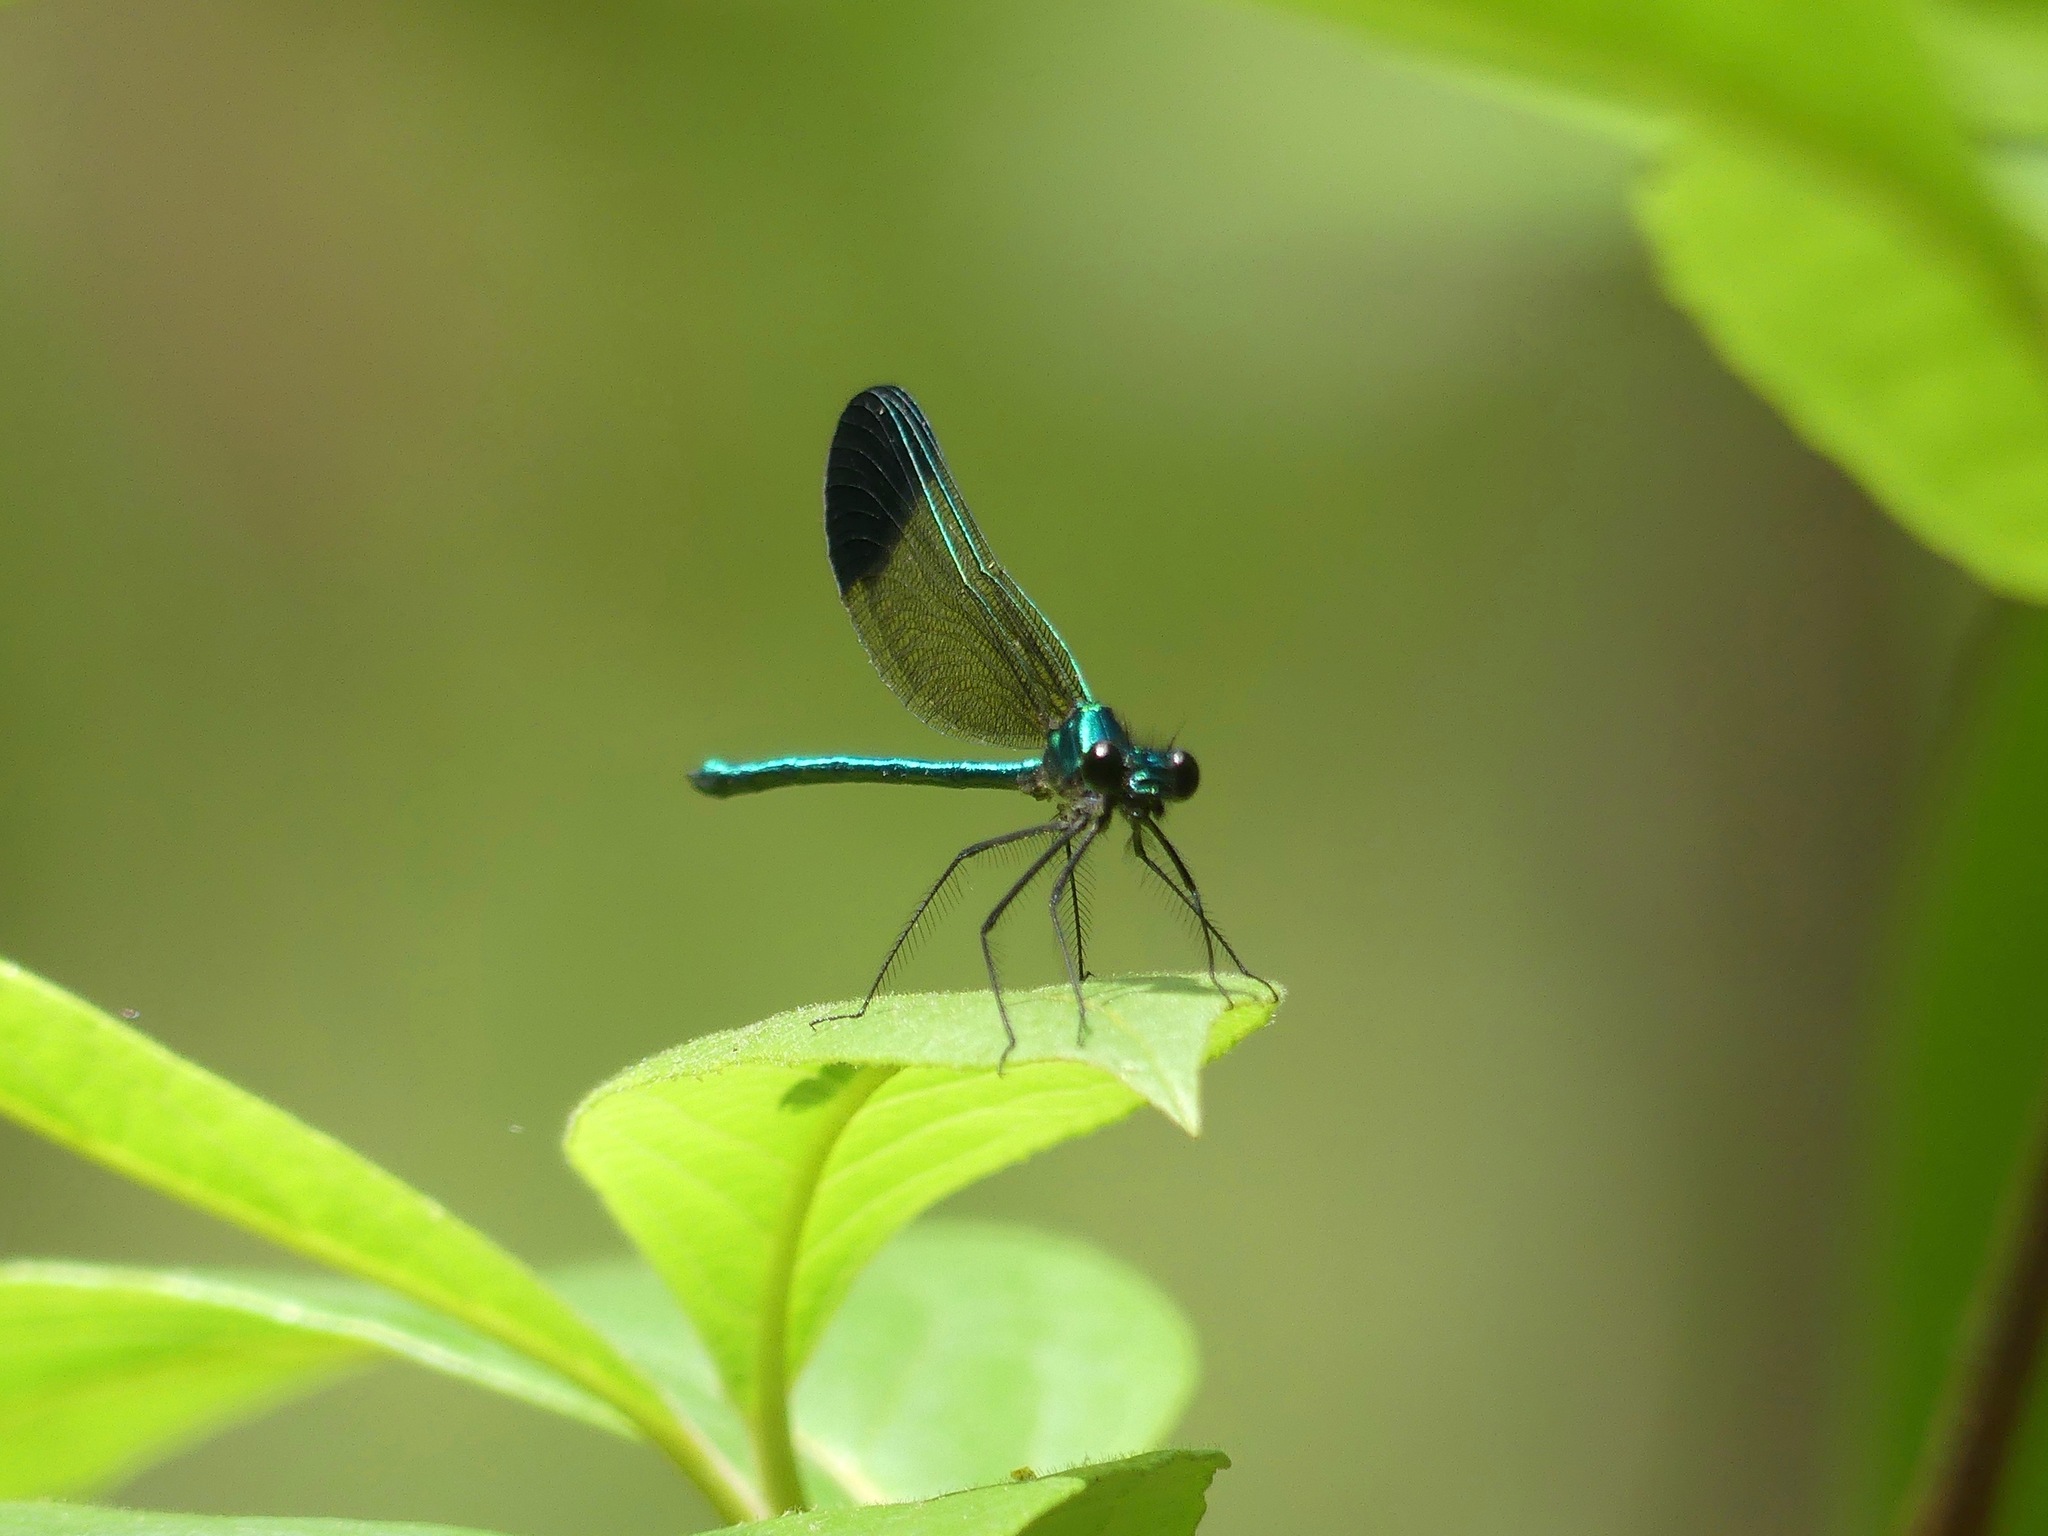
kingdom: Animalia
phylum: Arthropoda
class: Insecta
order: Odonata
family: Calopterygidae
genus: Calopteryx
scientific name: Calopteryx dimidiata
